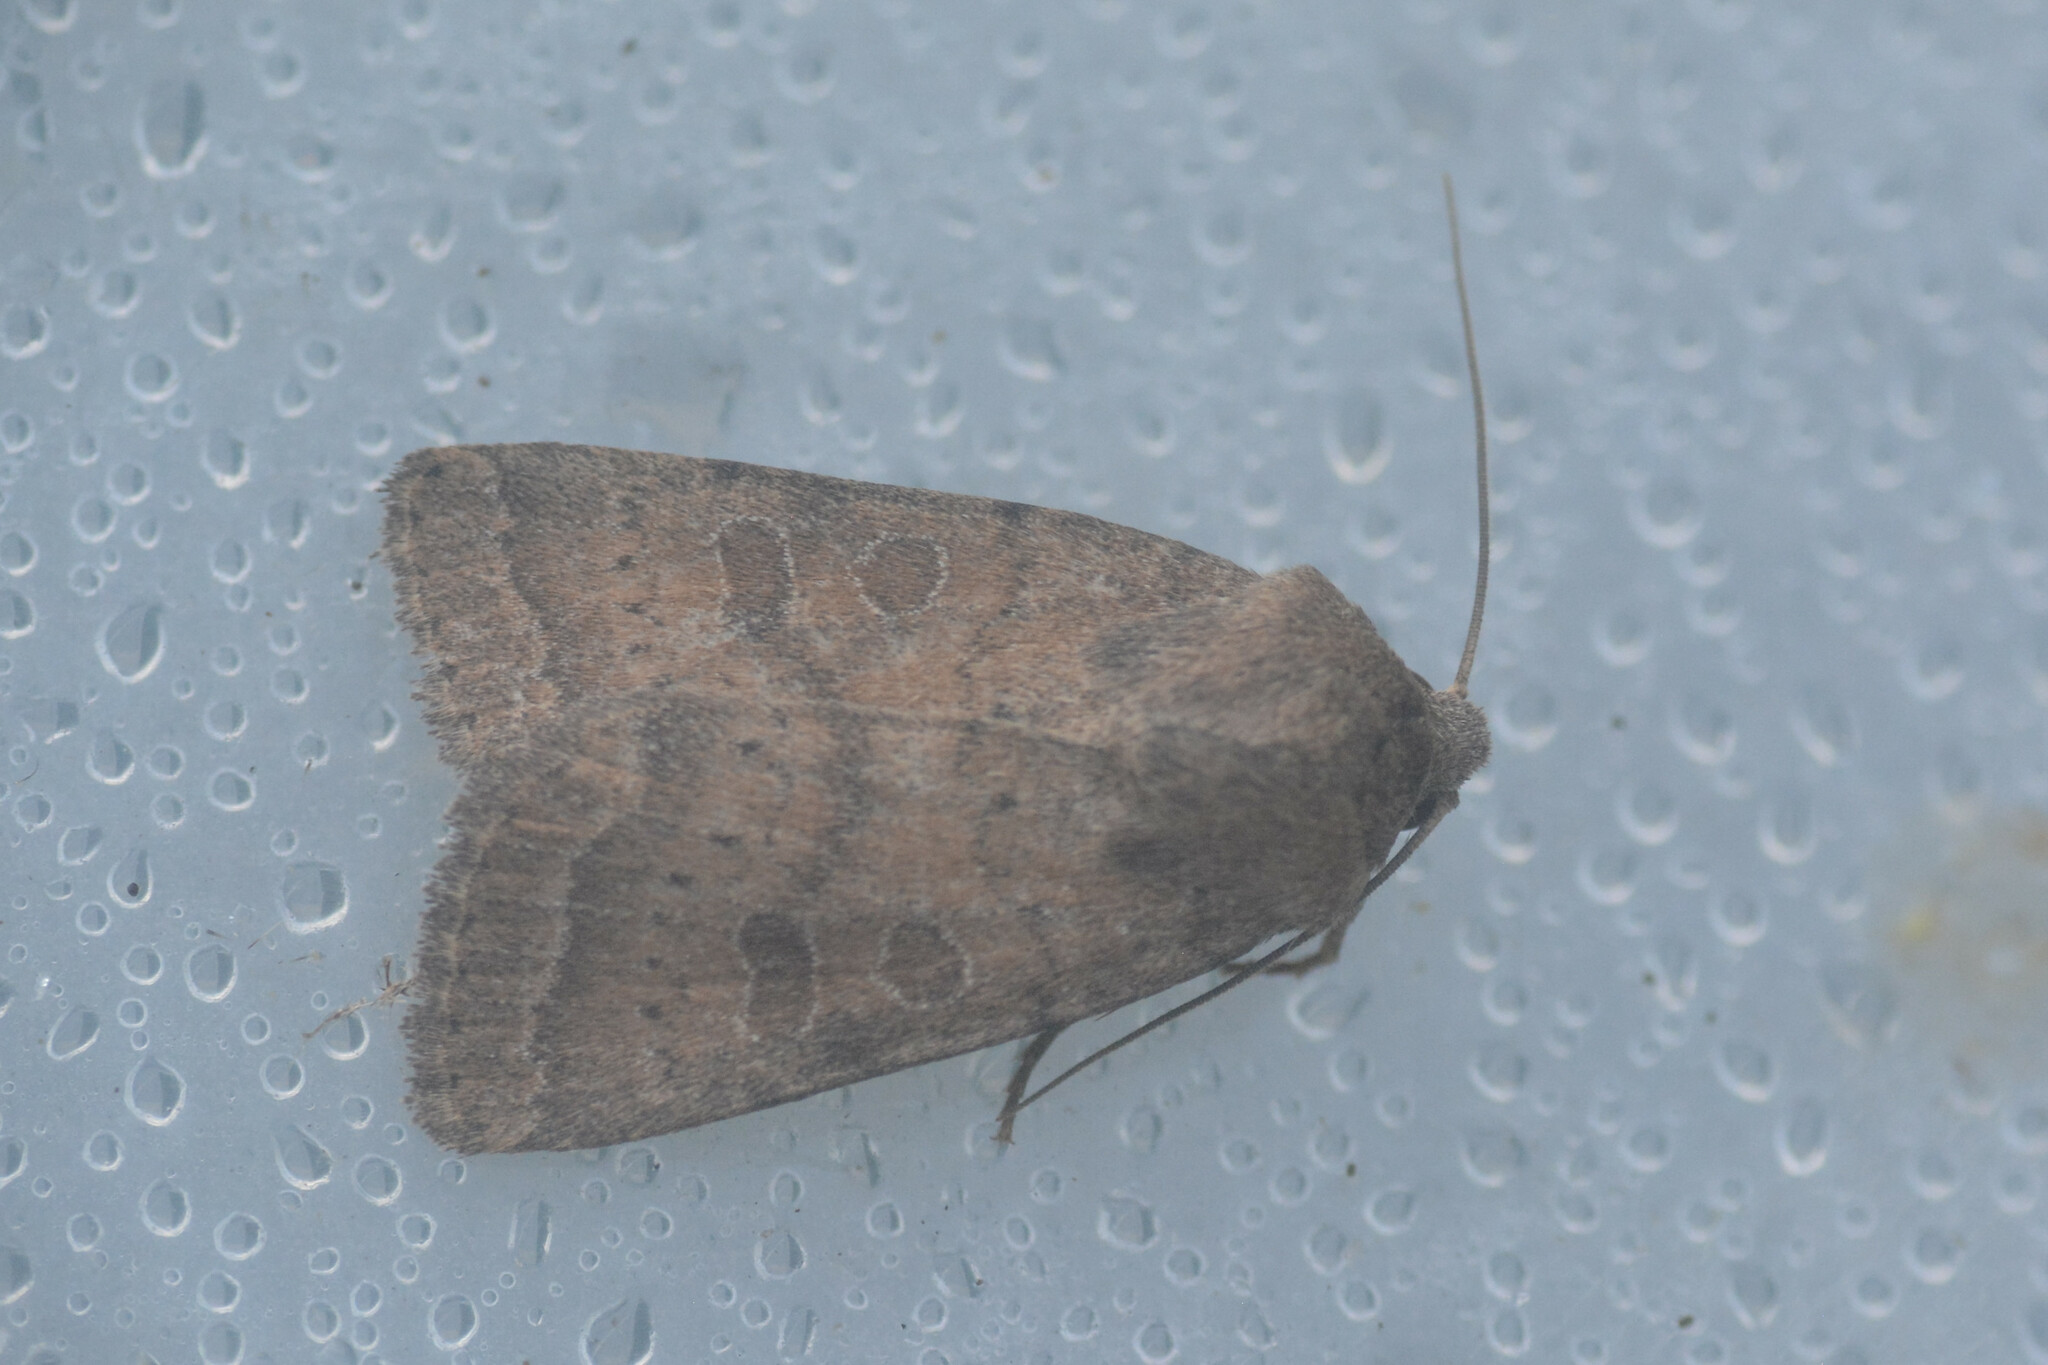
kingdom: Animalia
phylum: Arthropoda
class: Insecta
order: Lepidoptera
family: Noctuidae
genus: Hoplodrina
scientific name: Hoplodrina octogenaria
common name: Uncertain
